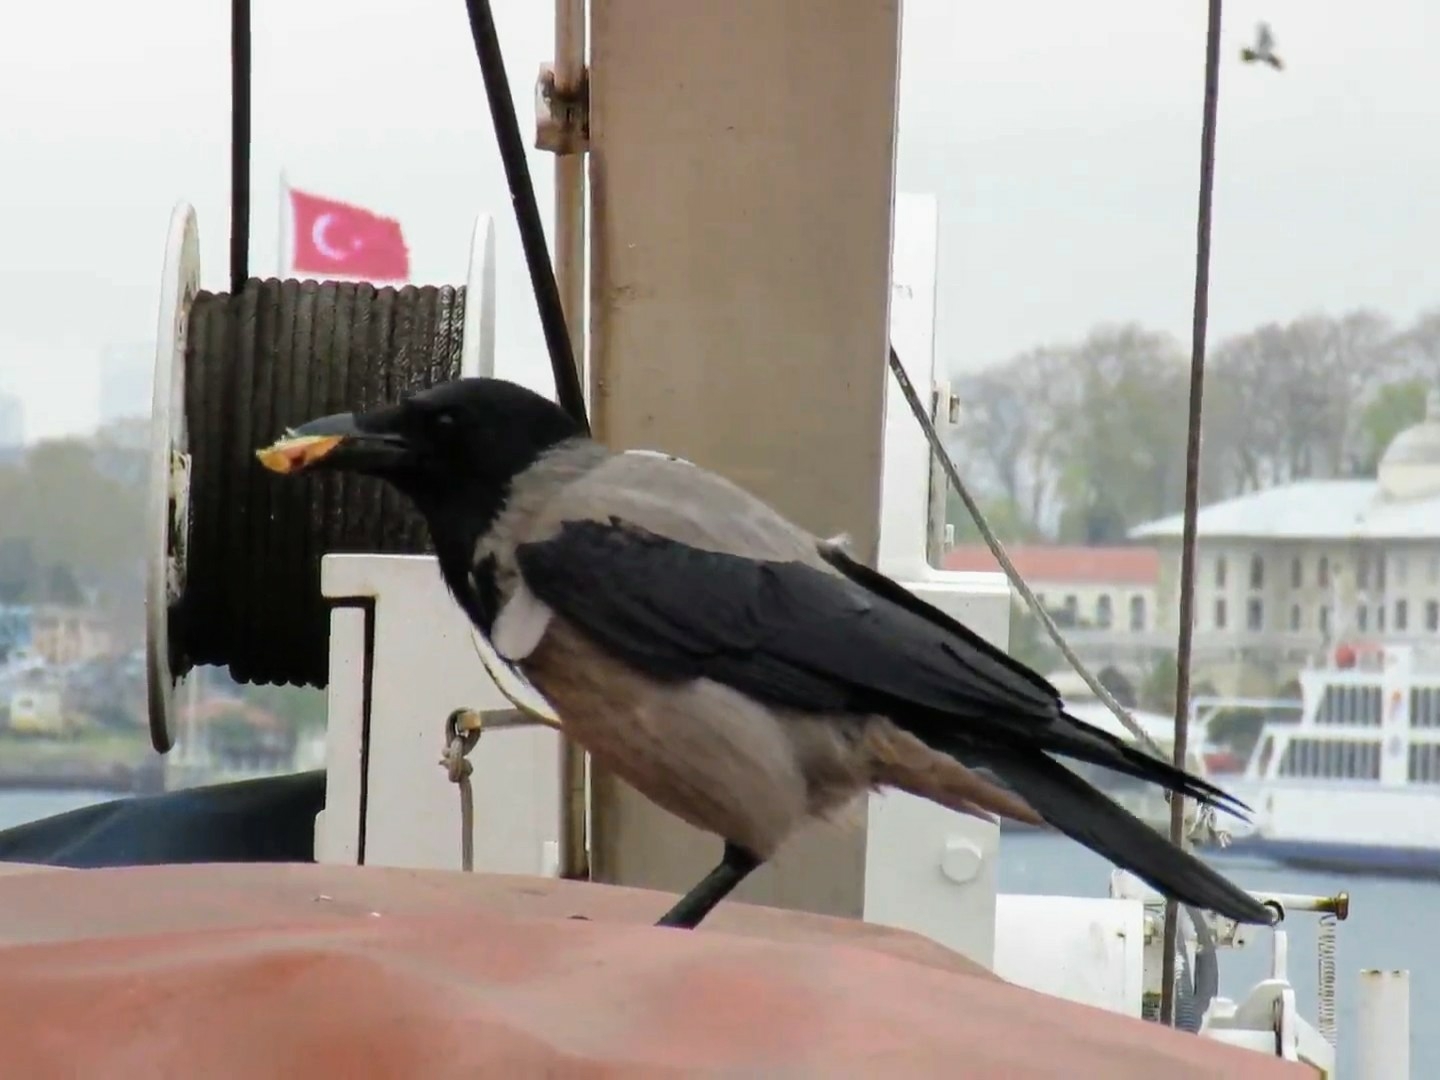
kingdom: Animalia
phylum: Chordata
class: Aves
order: Passeriformes
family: Corvidae
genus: Corvus
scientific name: Corvus cornix
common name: Hooded crow
